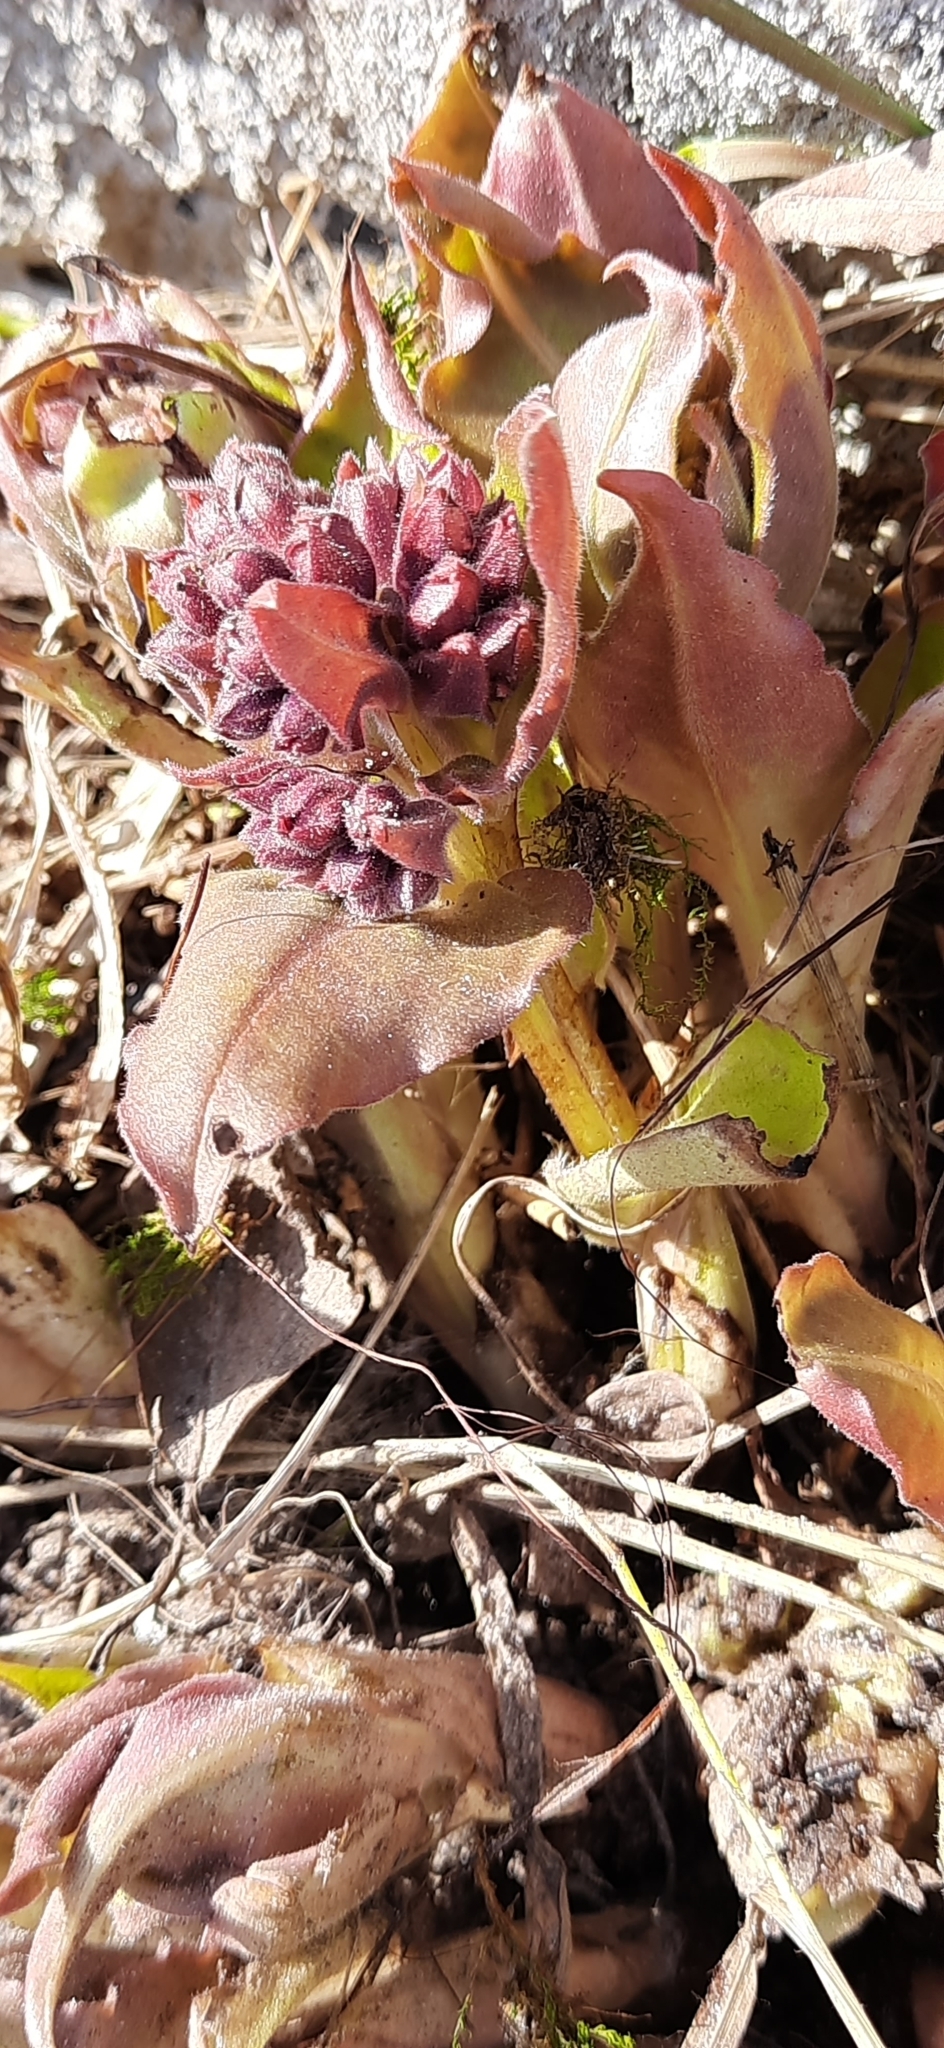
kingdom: Plantae
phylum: Tracheophyta
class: Magnoliopsida
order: Boraginales
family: Boraginaceae
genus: Pulmonaria
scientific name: Pulmonaria mollis
